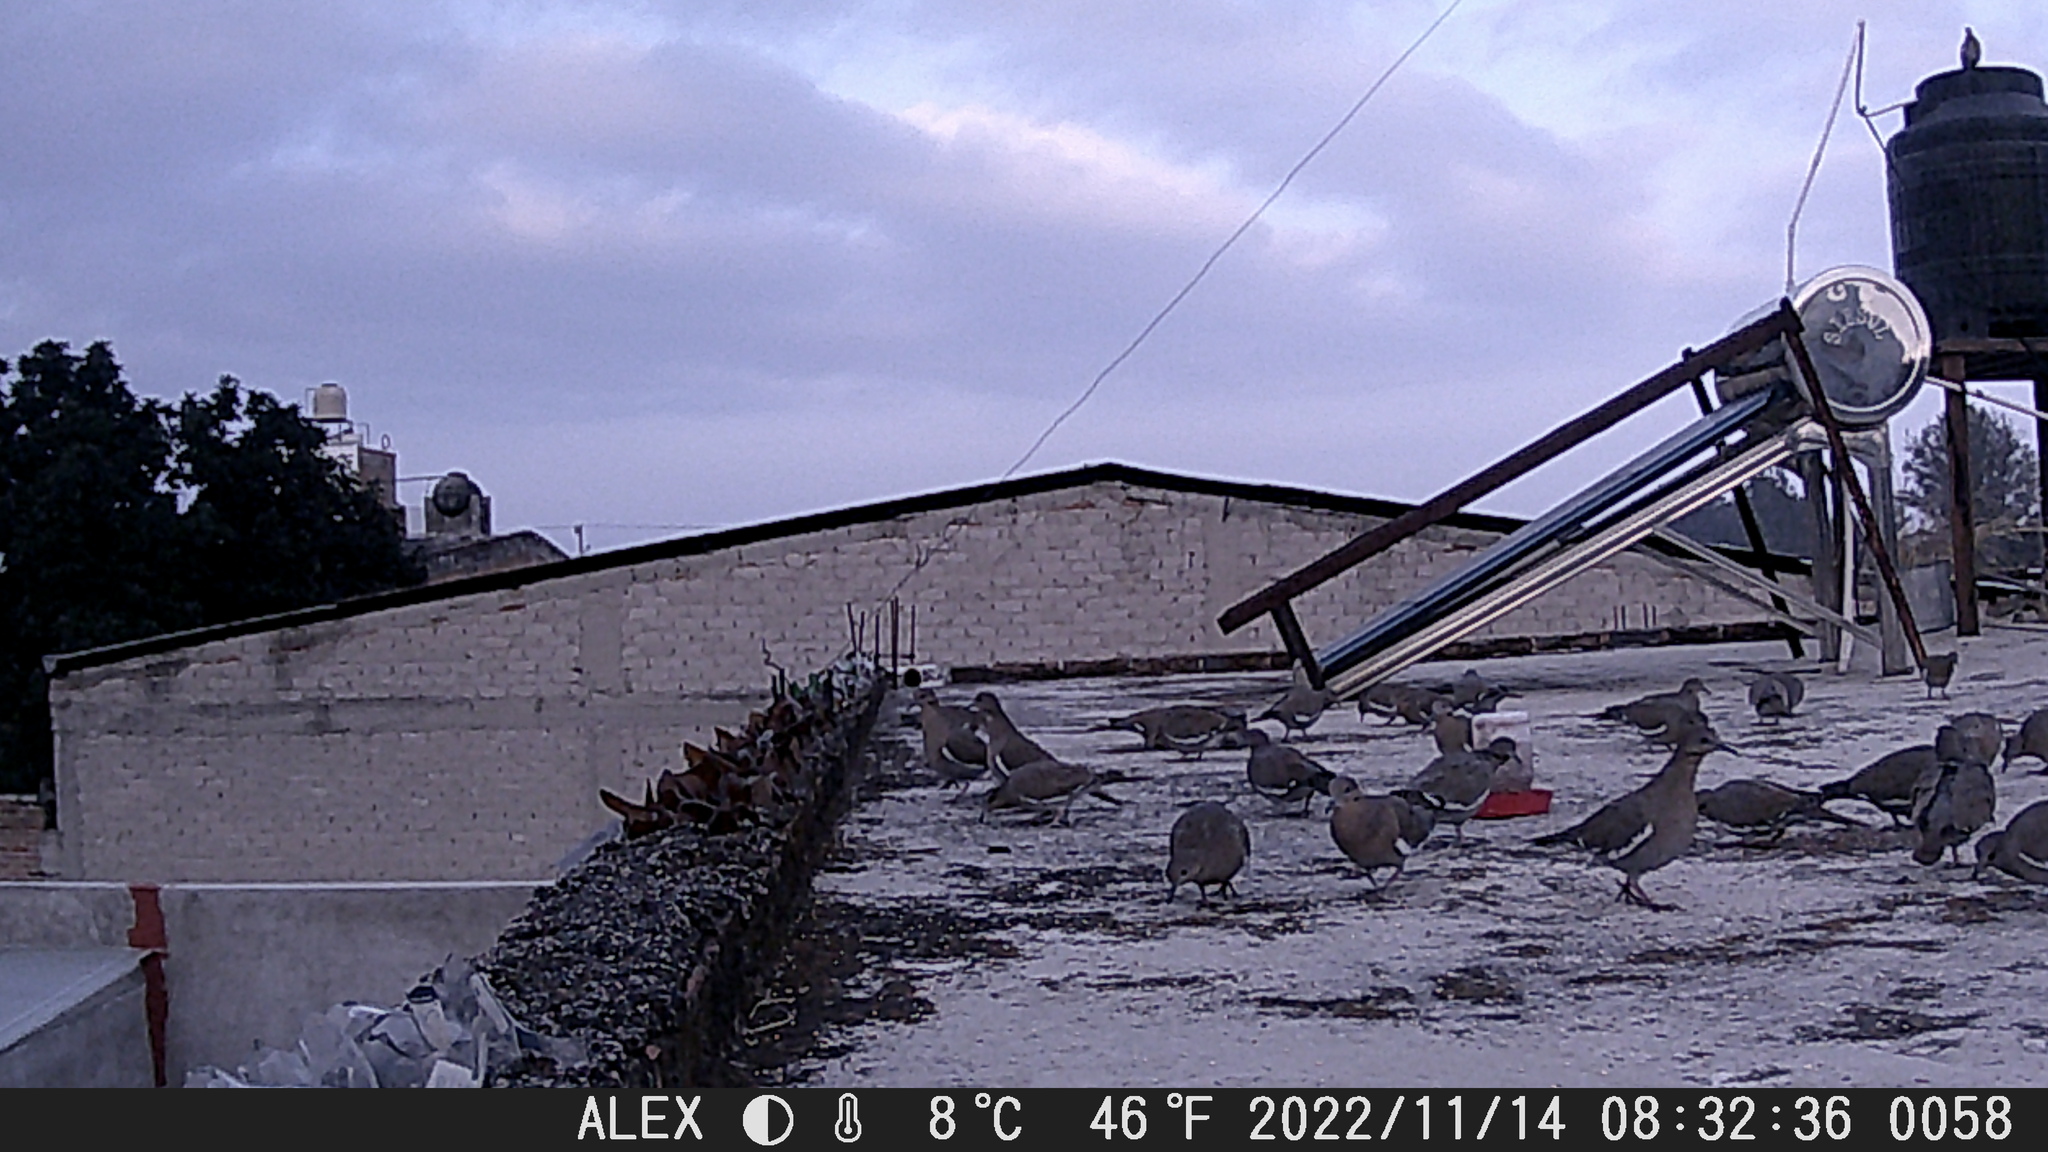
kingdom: Animalia
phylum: Chordata
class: Aves
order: Columbiformes
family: Columbidae
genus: Zenaida
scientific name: Zenaida asiatica
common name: White-winged dove
